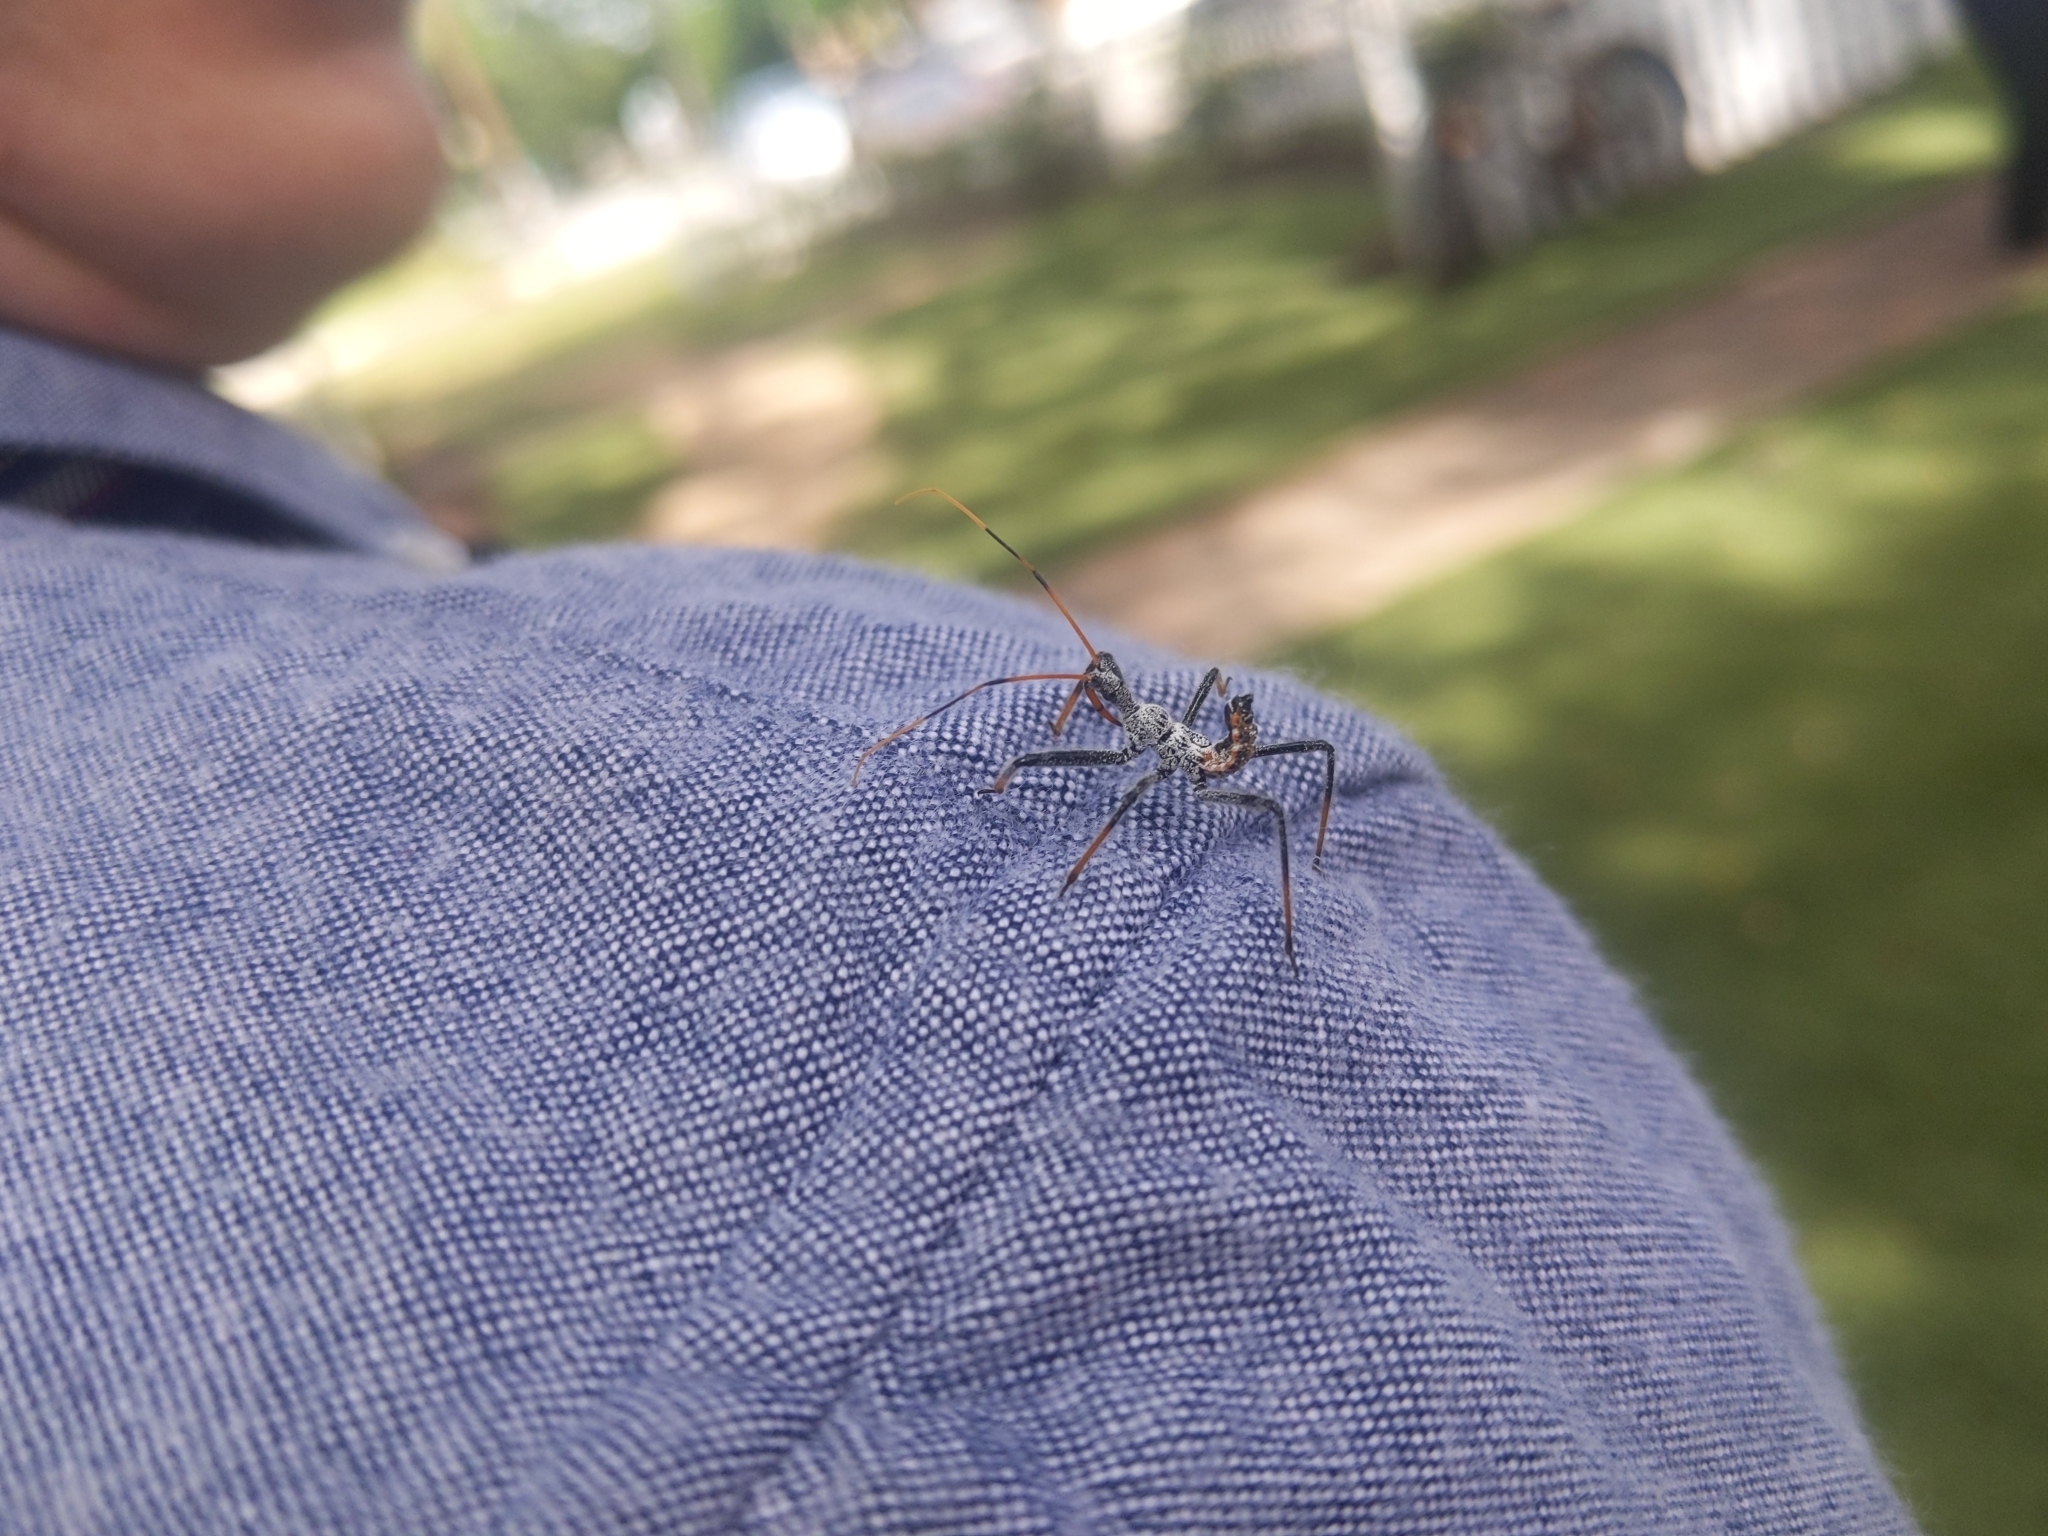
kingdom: Animalia
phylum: Arthropoda
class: Insecta
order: Hemiptera
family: Reduviidae
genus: Arilus
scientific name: Arilus cristatus
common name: North american wheel bug
